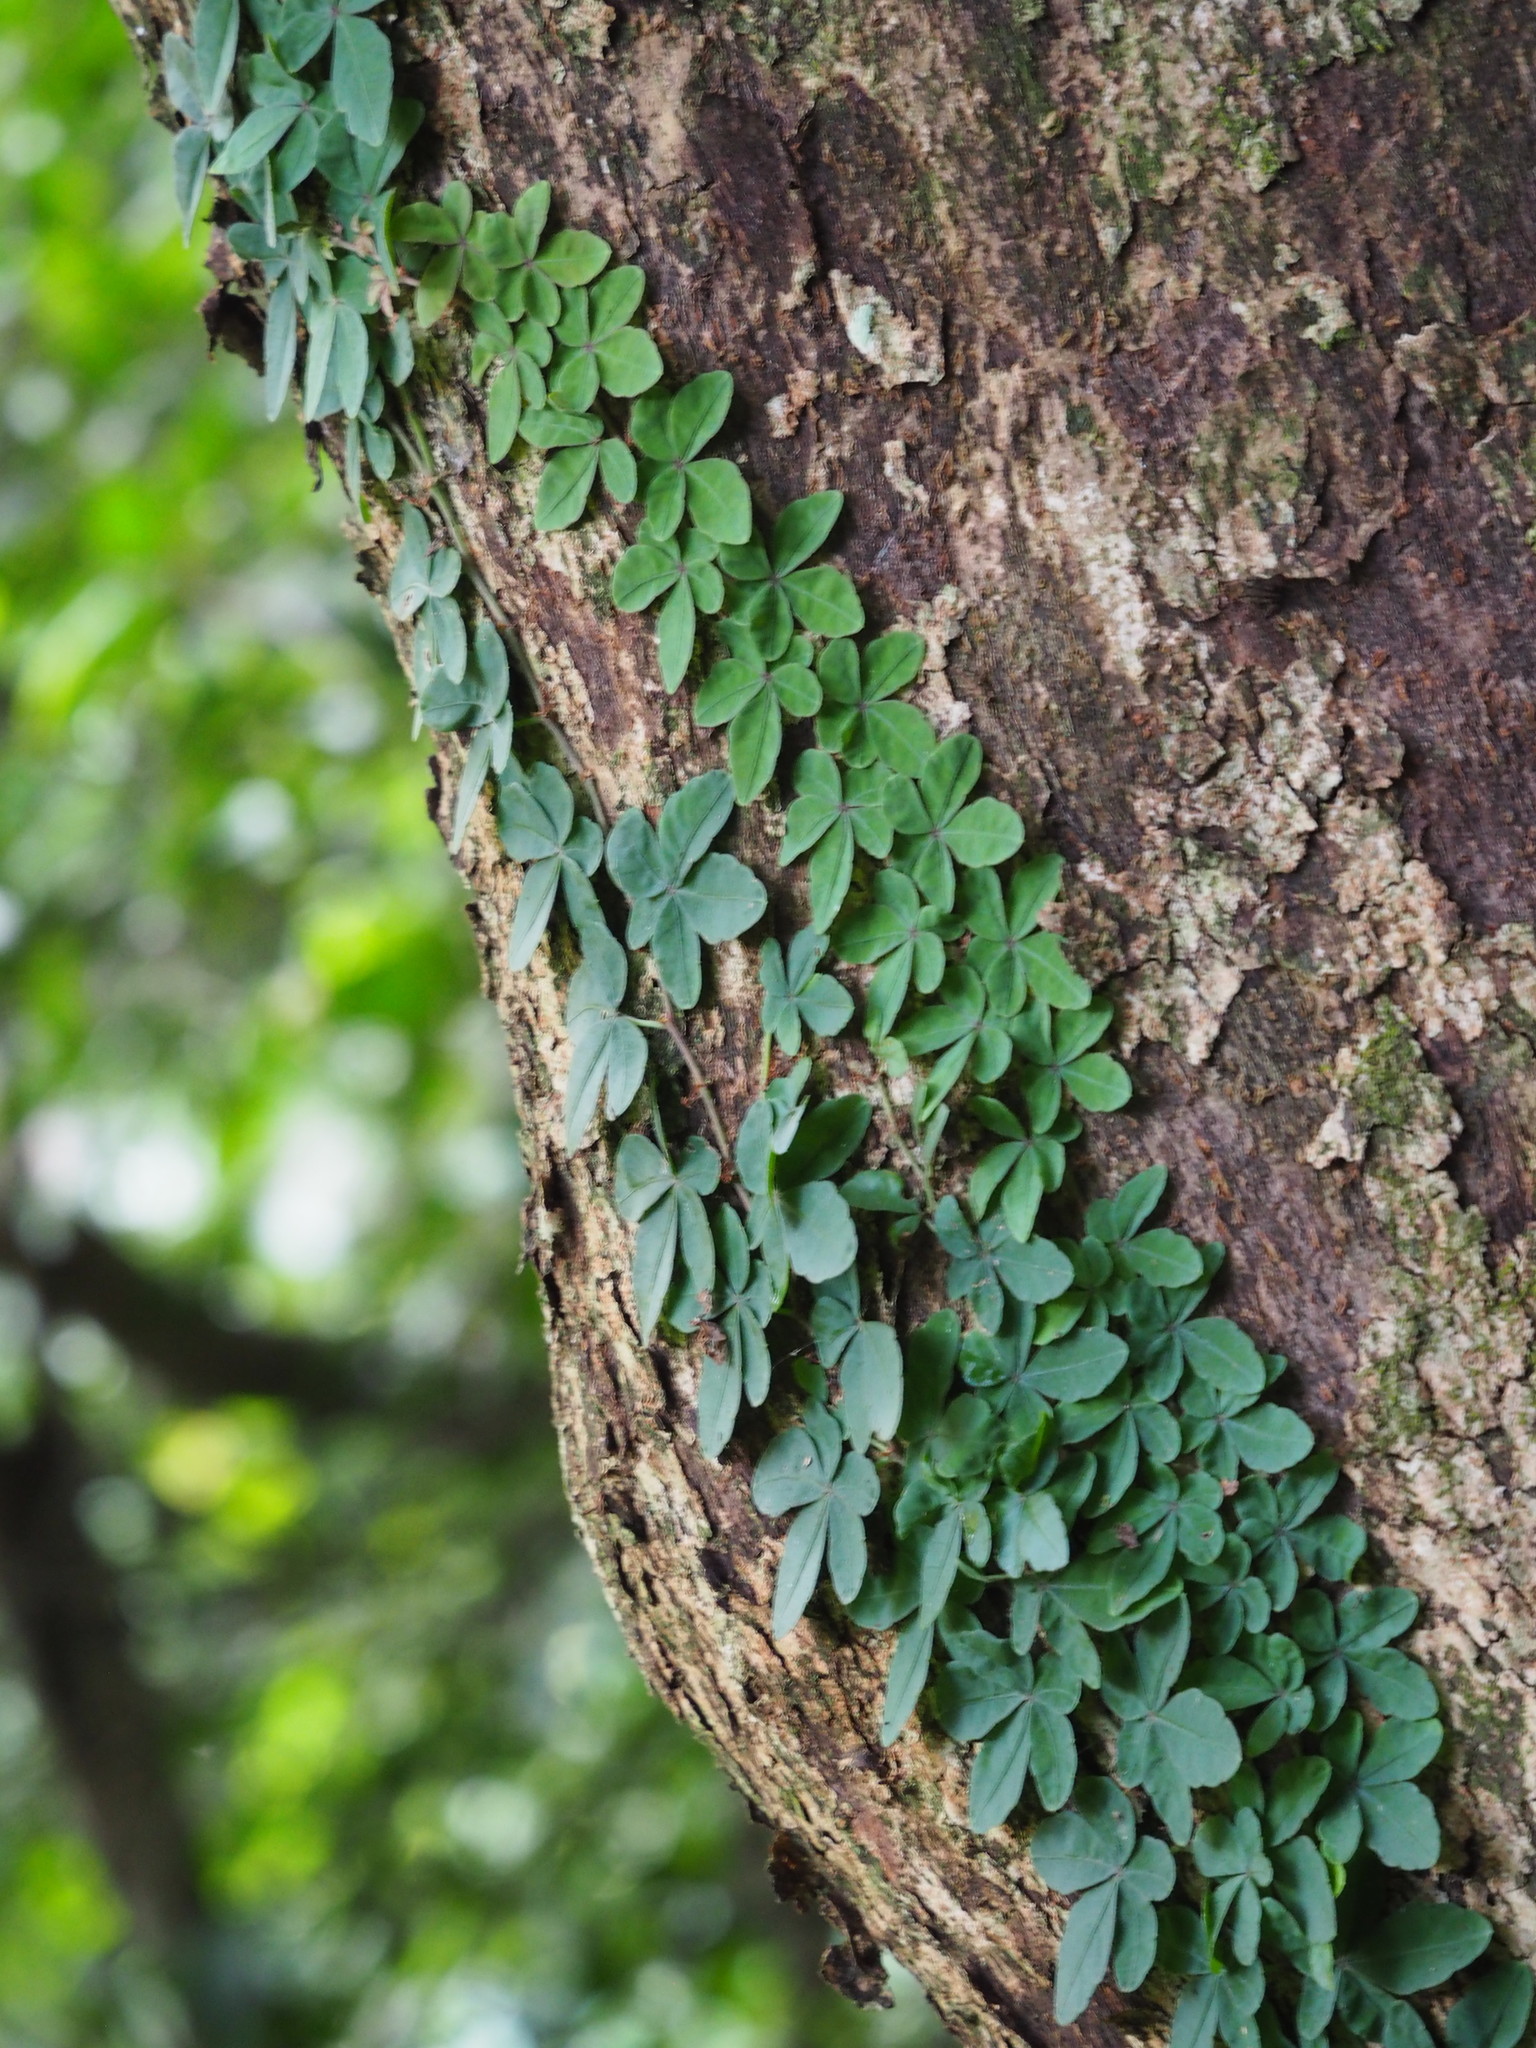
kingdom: Plantae
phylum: Tracheophyta
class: Magnoliopsida
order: Vitales
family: Vitaceae
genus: Tetrastigma
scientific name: Tetrastigma obtectum
